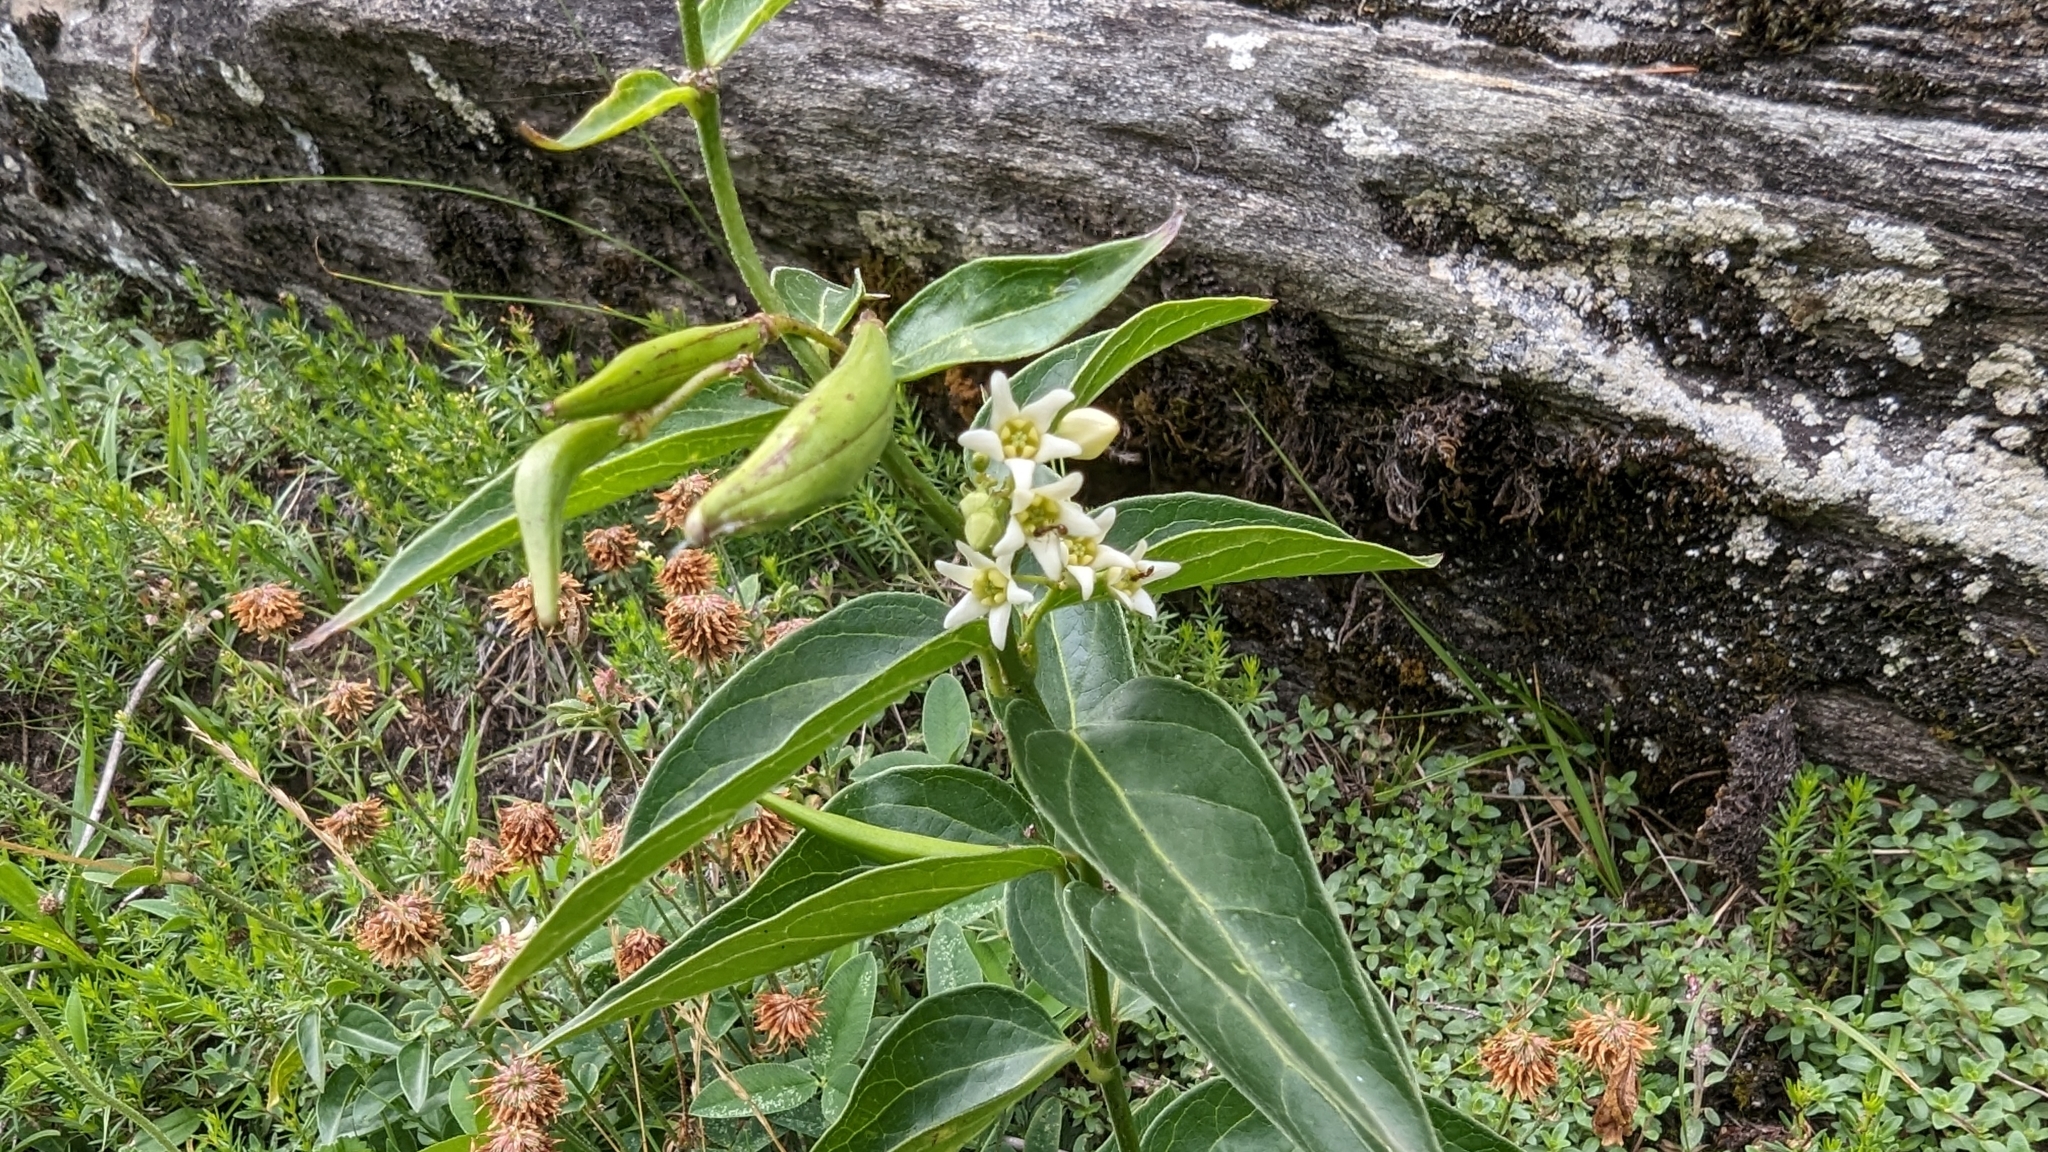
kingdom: Plantae
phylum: Tracheophyta
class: Magnoliopsida
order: Gentianales
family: Apocynaceae
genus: Vincetoxicum
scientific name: Vincetoxicum hirundinaria
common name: White swallowwort
